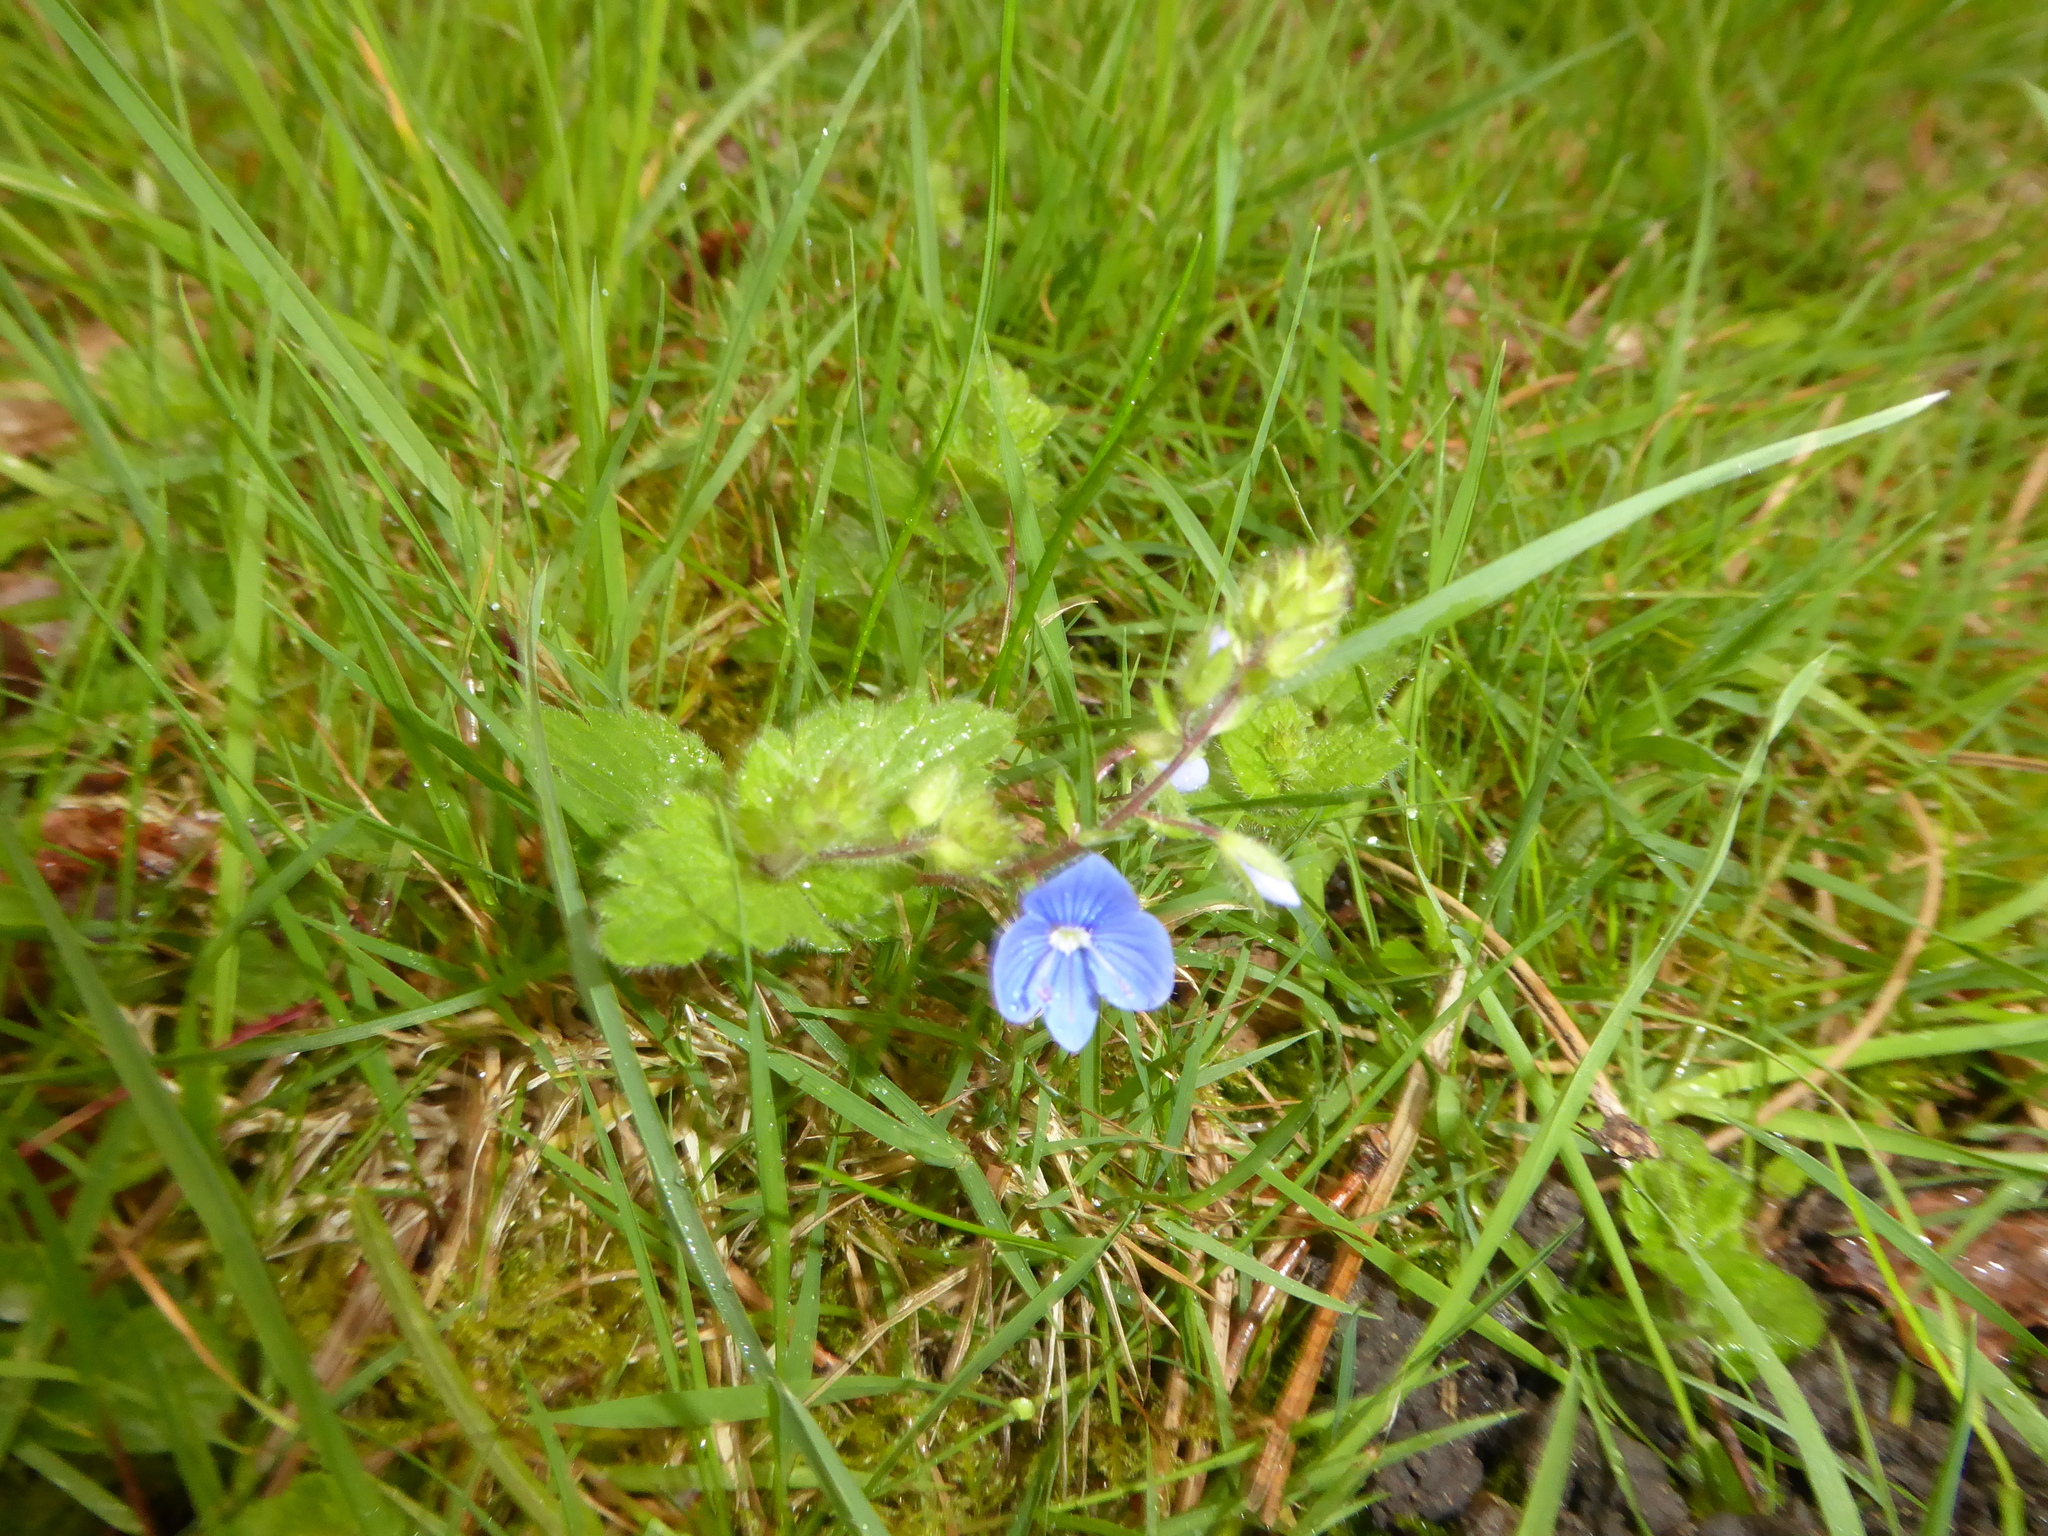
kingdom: Plantae
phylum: Tracheophyta
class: Magnoliopsida
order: Lamiales
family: Plantaginaceae
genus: Veronica
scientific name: Veronica chamaedrys
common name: Germander speedwell
